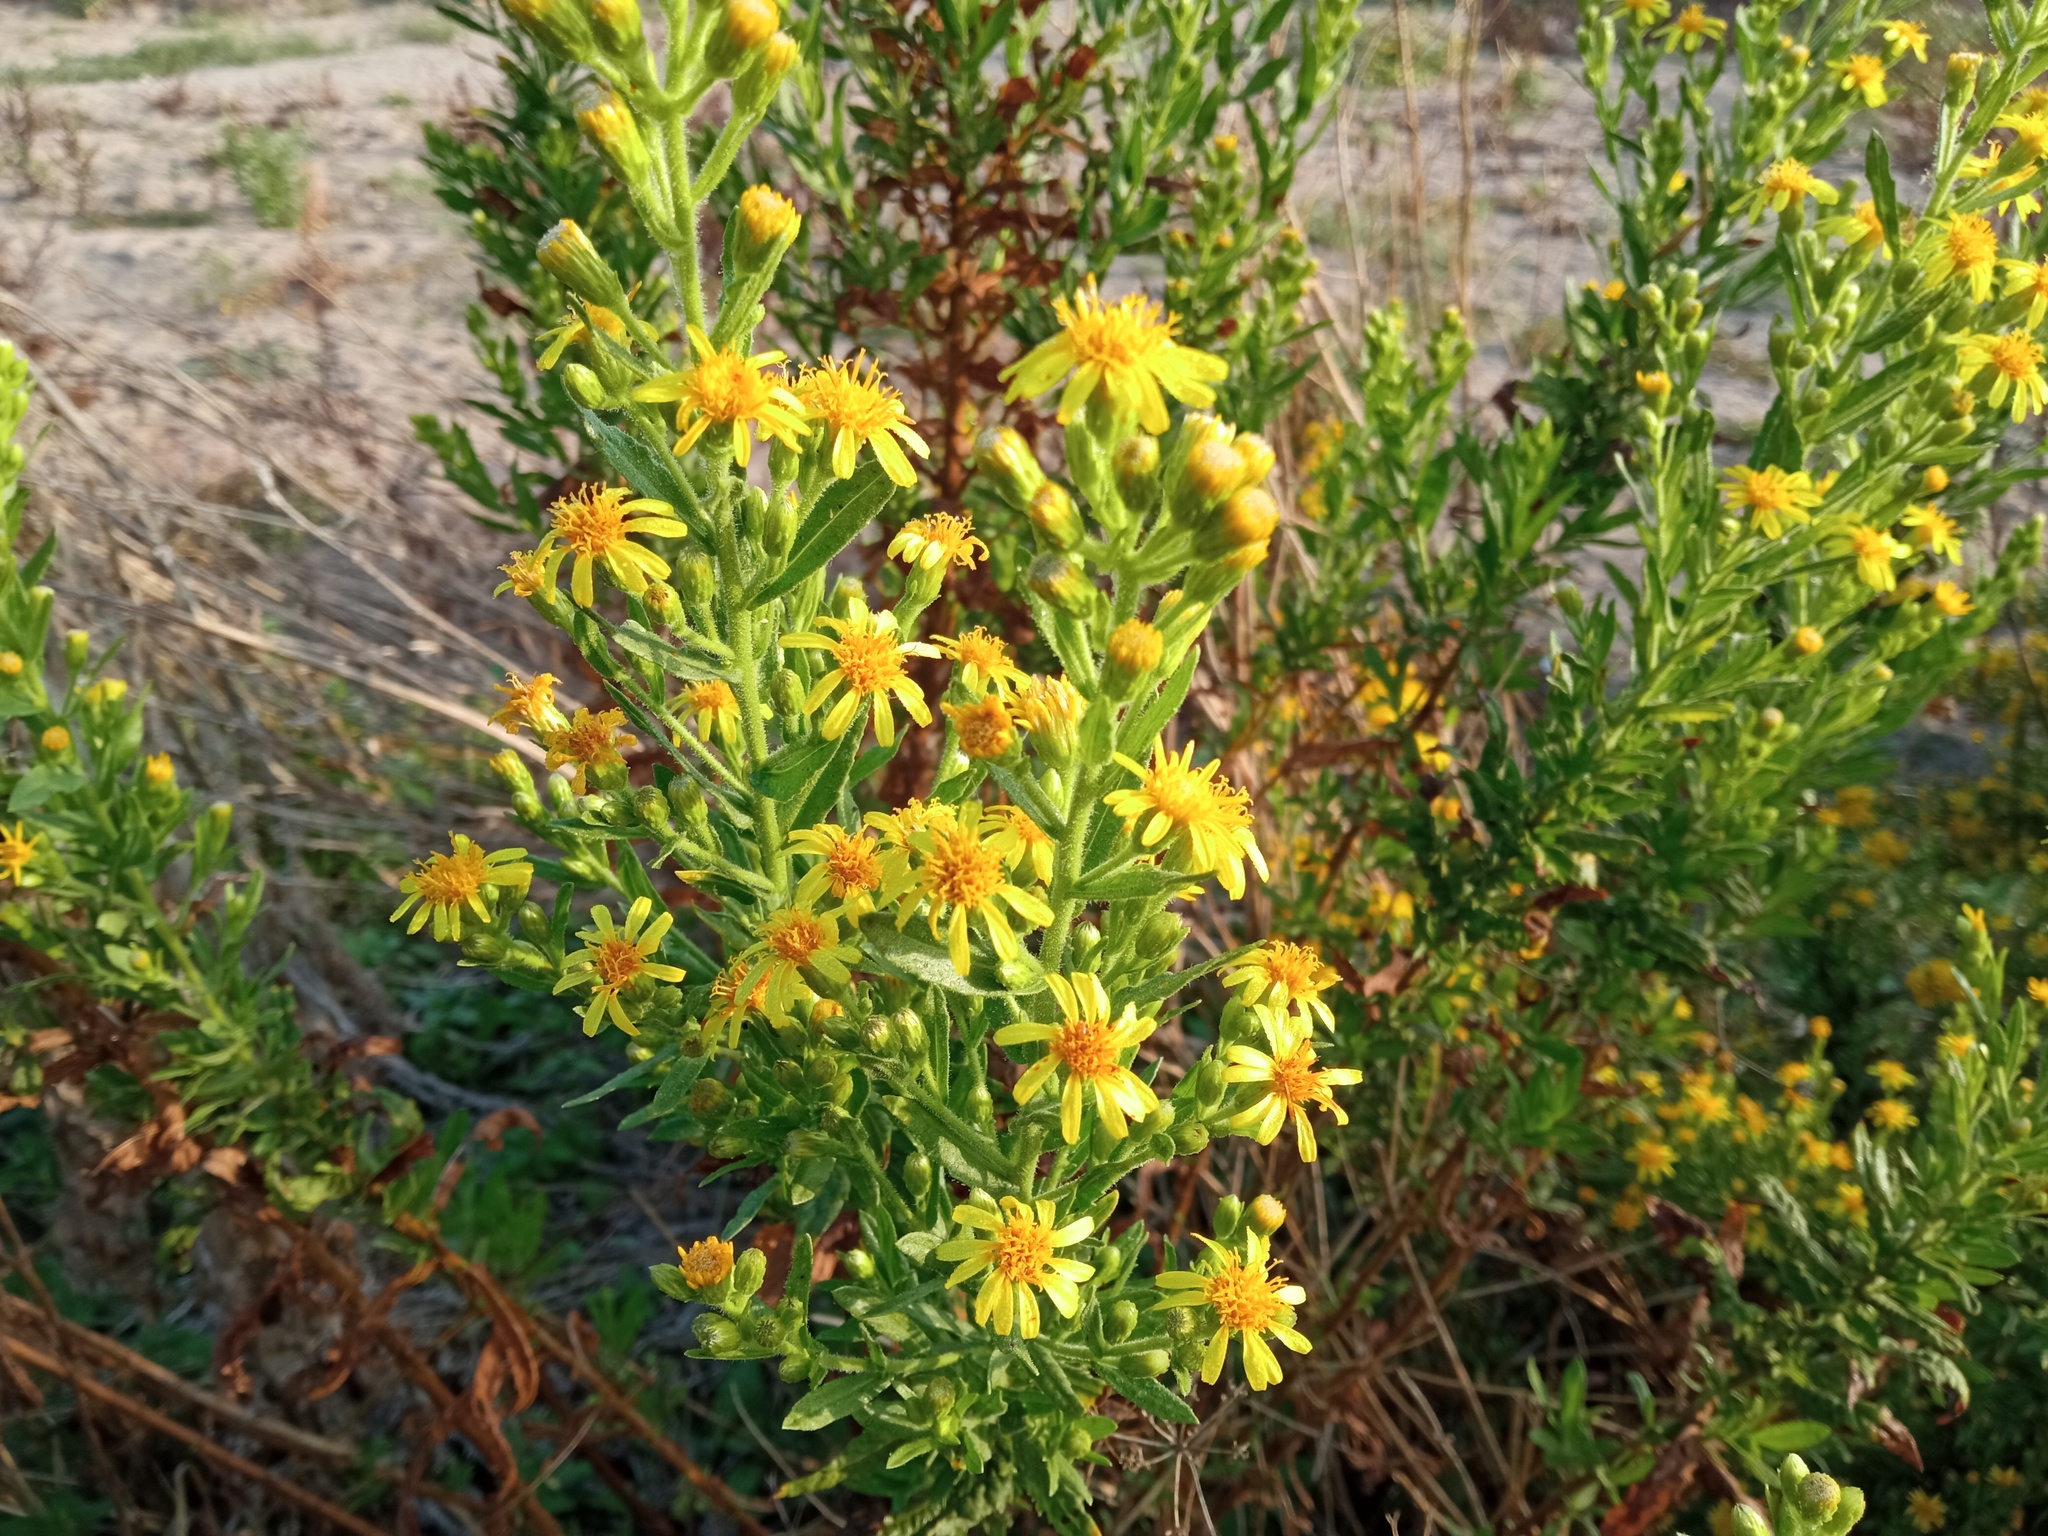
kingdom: Plantae
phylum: Tracheophyta
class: Magnoliopsida
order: Asterales
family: Asteraceae
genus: Dittrichia
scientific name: Dittrichia viscosa
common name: Woody fleabane
